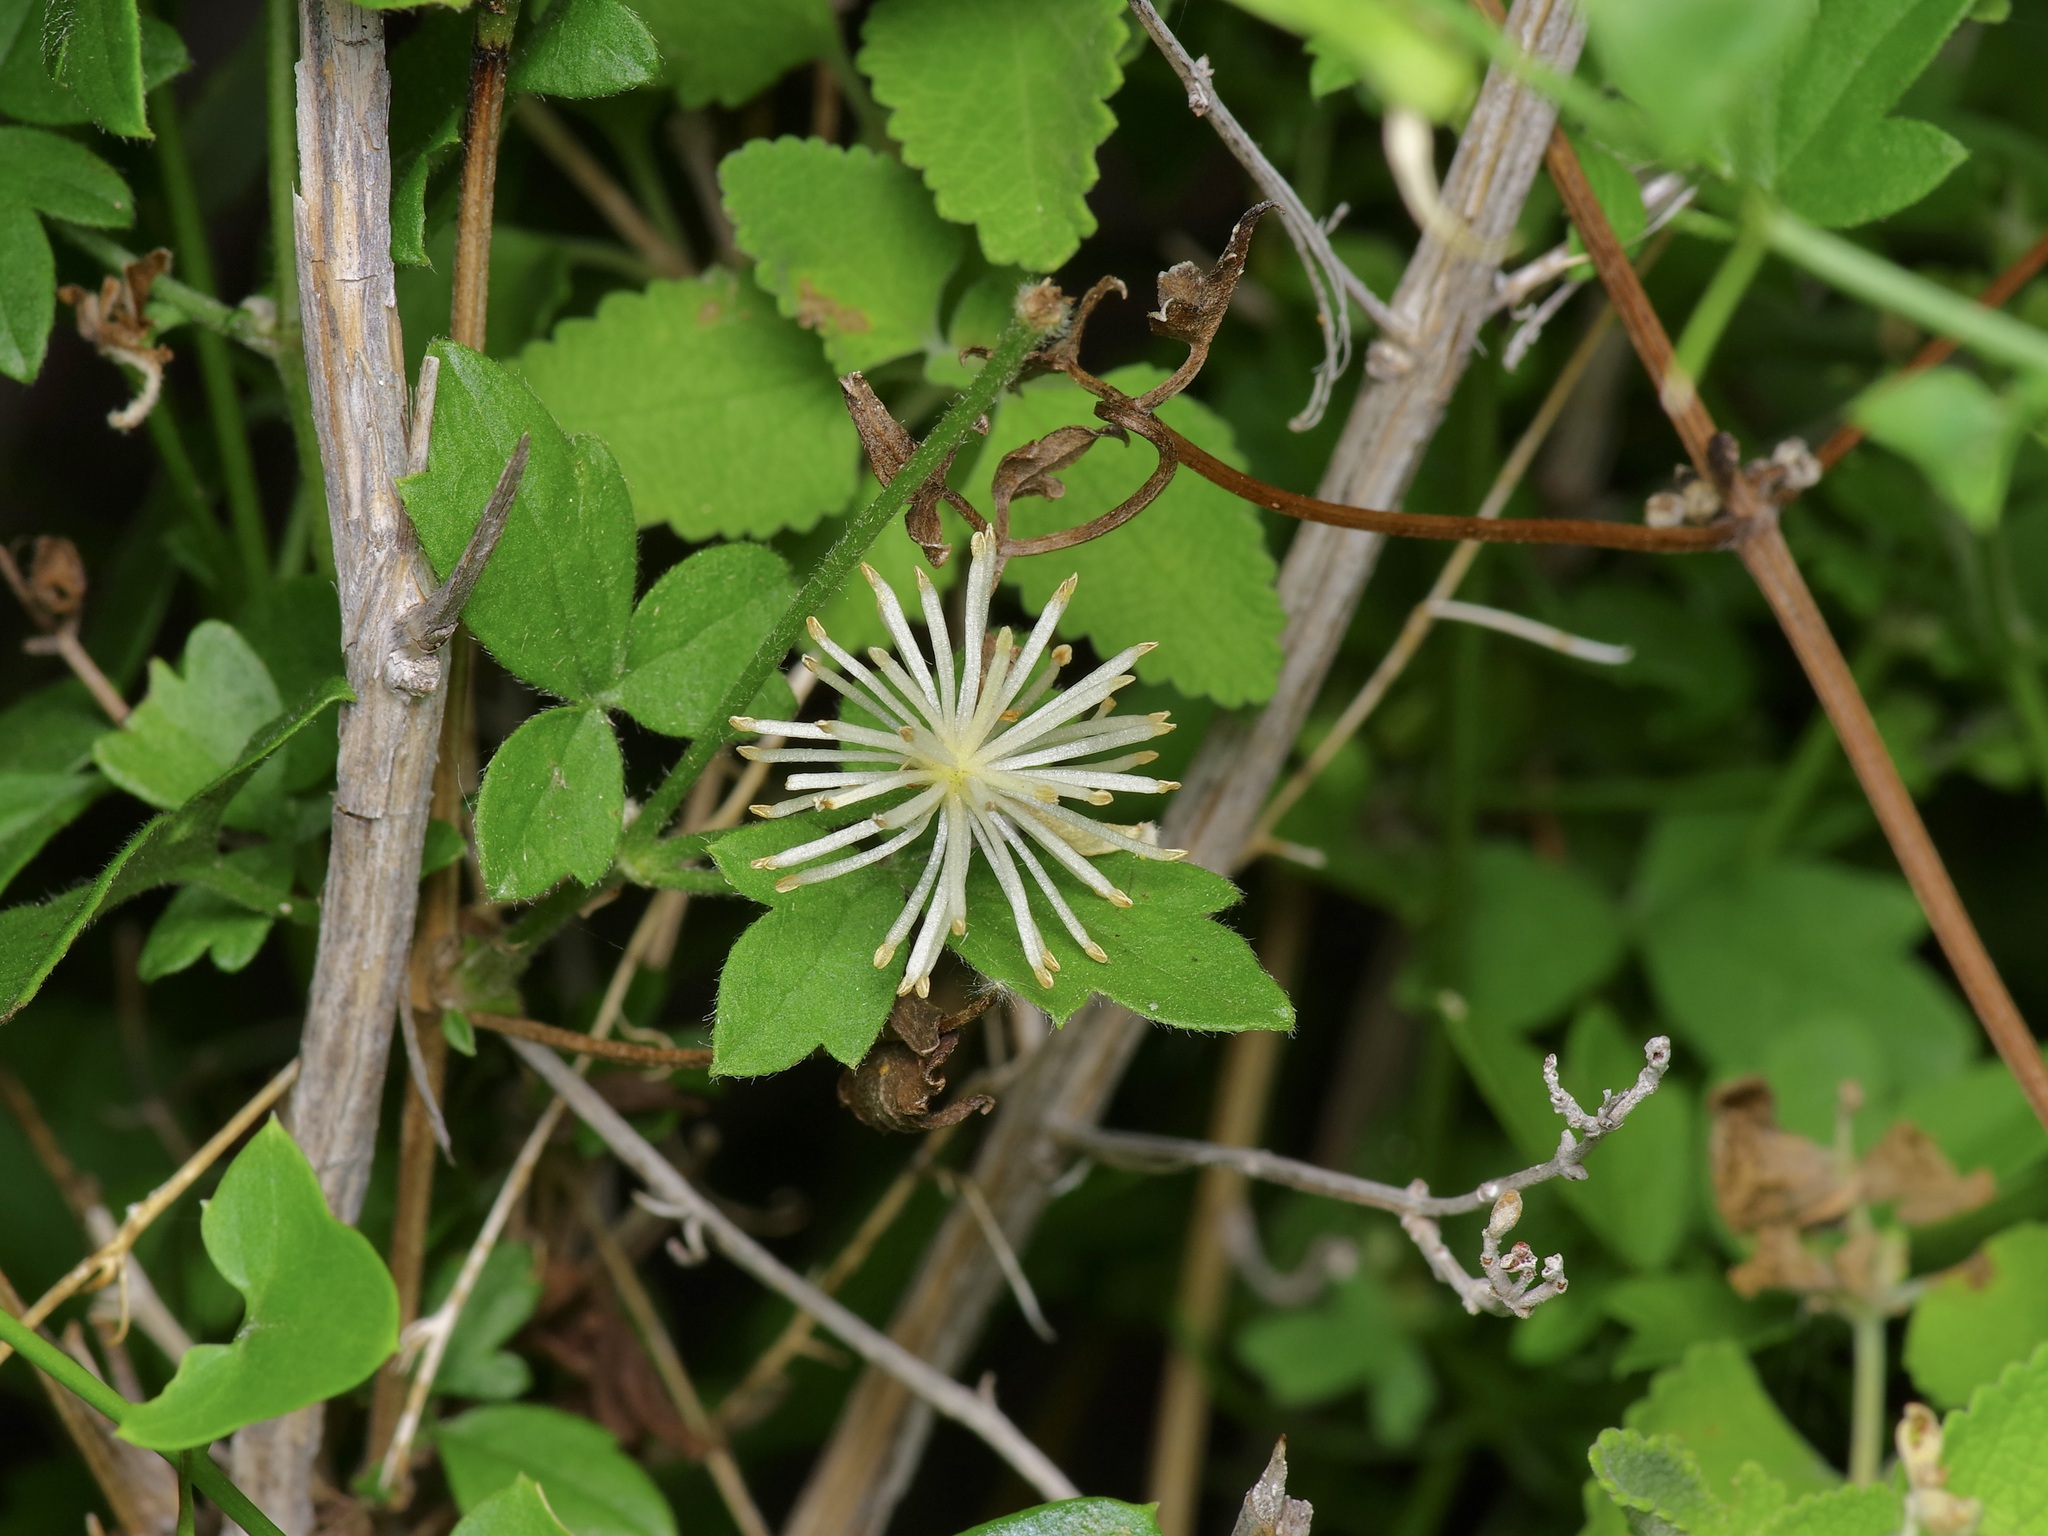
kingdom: Plantae
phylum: Tracheophyta
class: Magnoliopsida
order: Ranunculales
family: Ranunculaceae
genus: Clematis
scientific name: Clematis drummondii
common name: Texas virgin's bower
